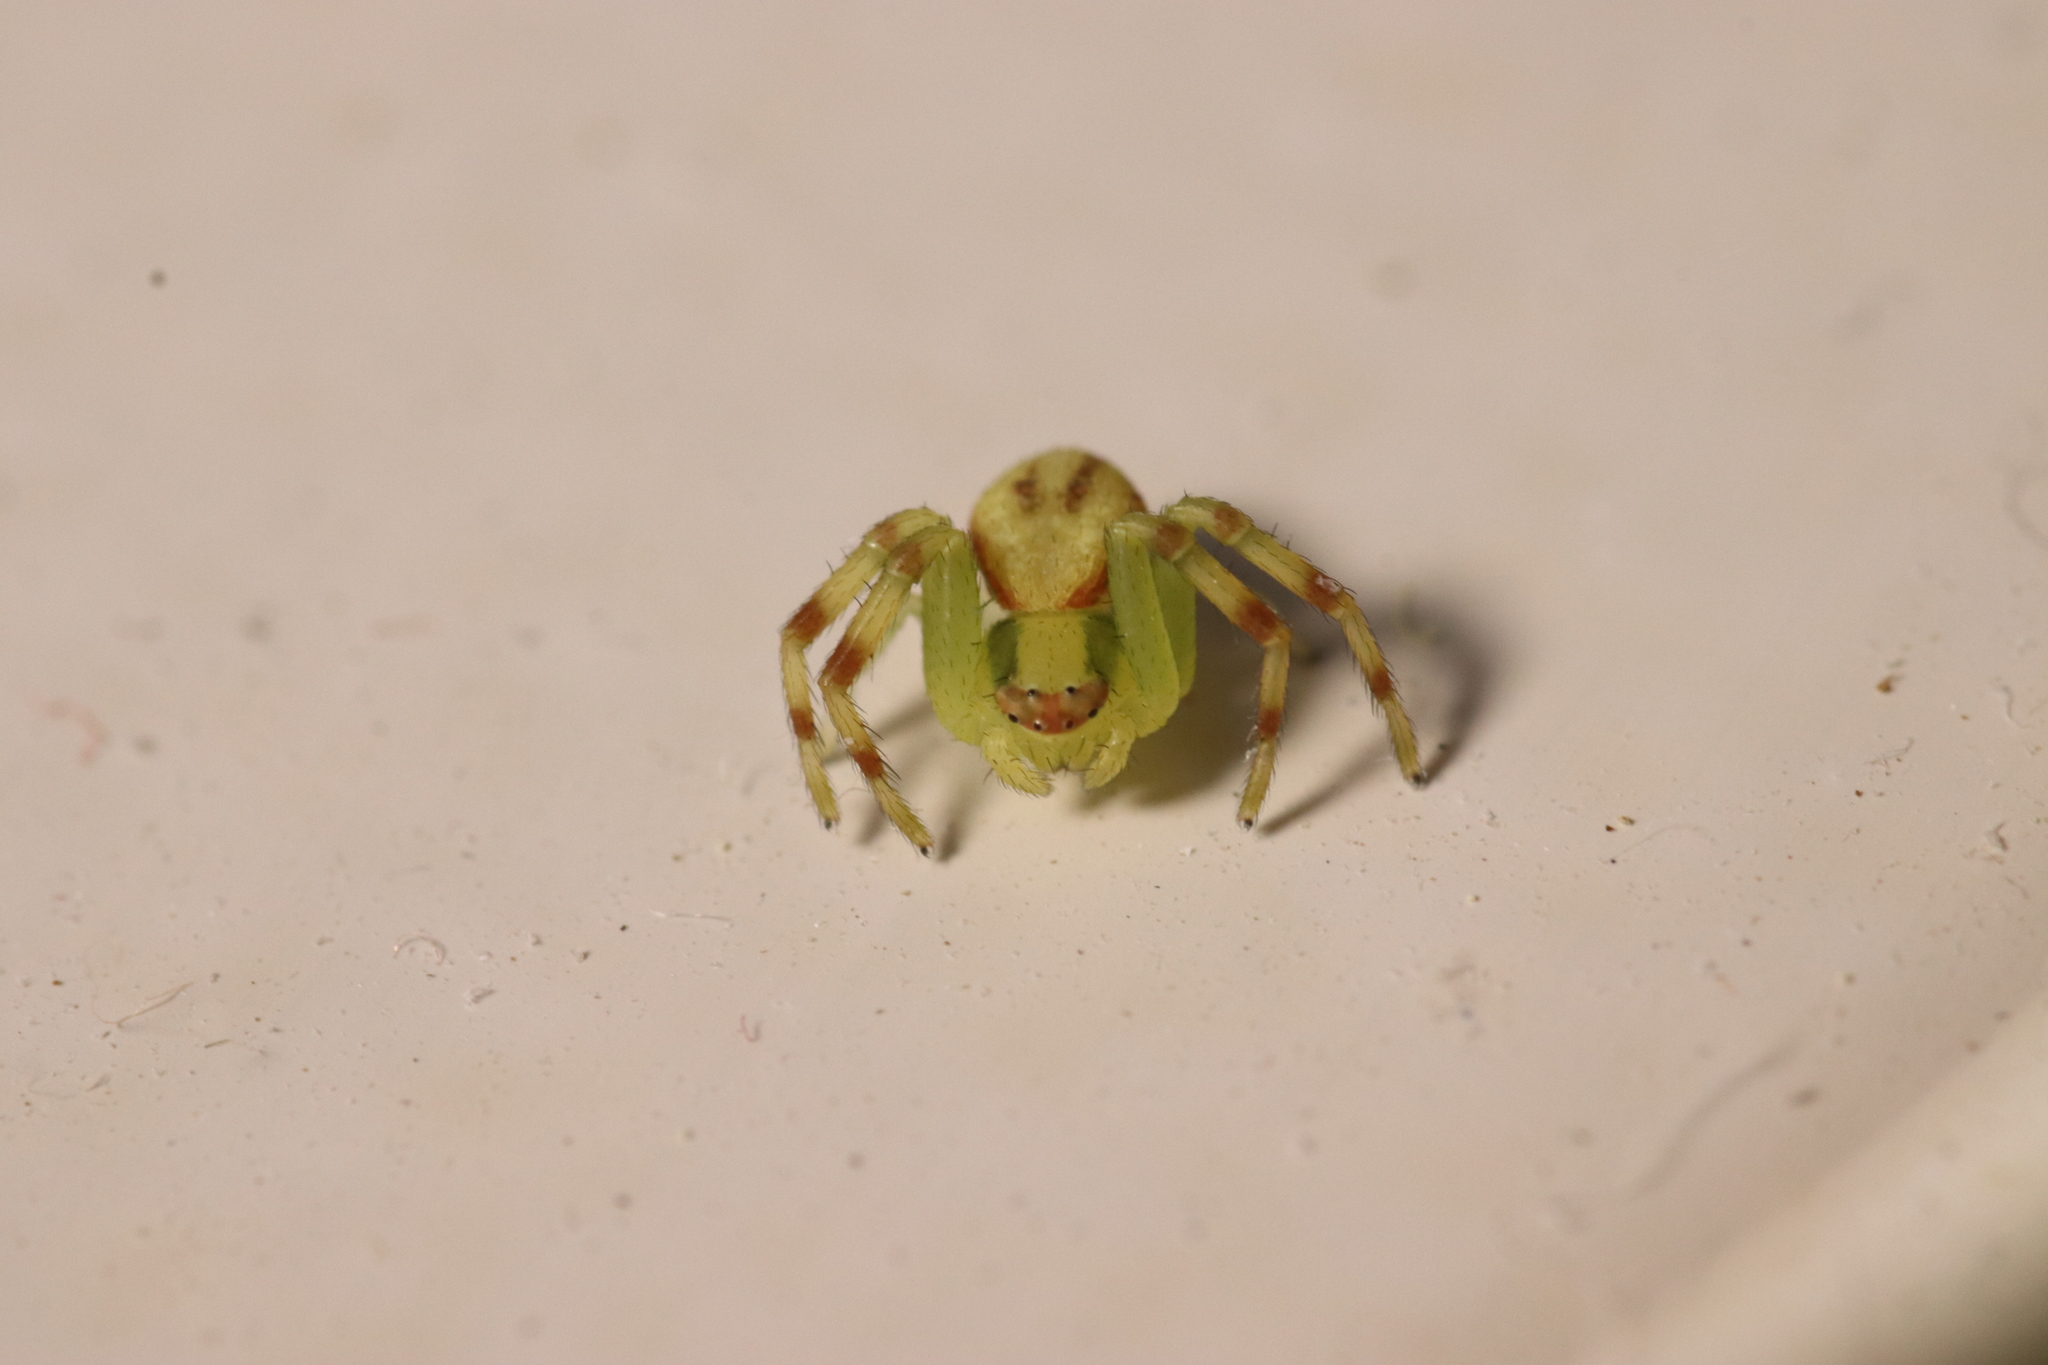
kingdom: Animalia
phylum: Arthropoda
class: Arachnida
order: Araneae
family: Thomisidae
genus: Misumena
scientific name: Misumena vatia
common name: Goldenrod crab spider
